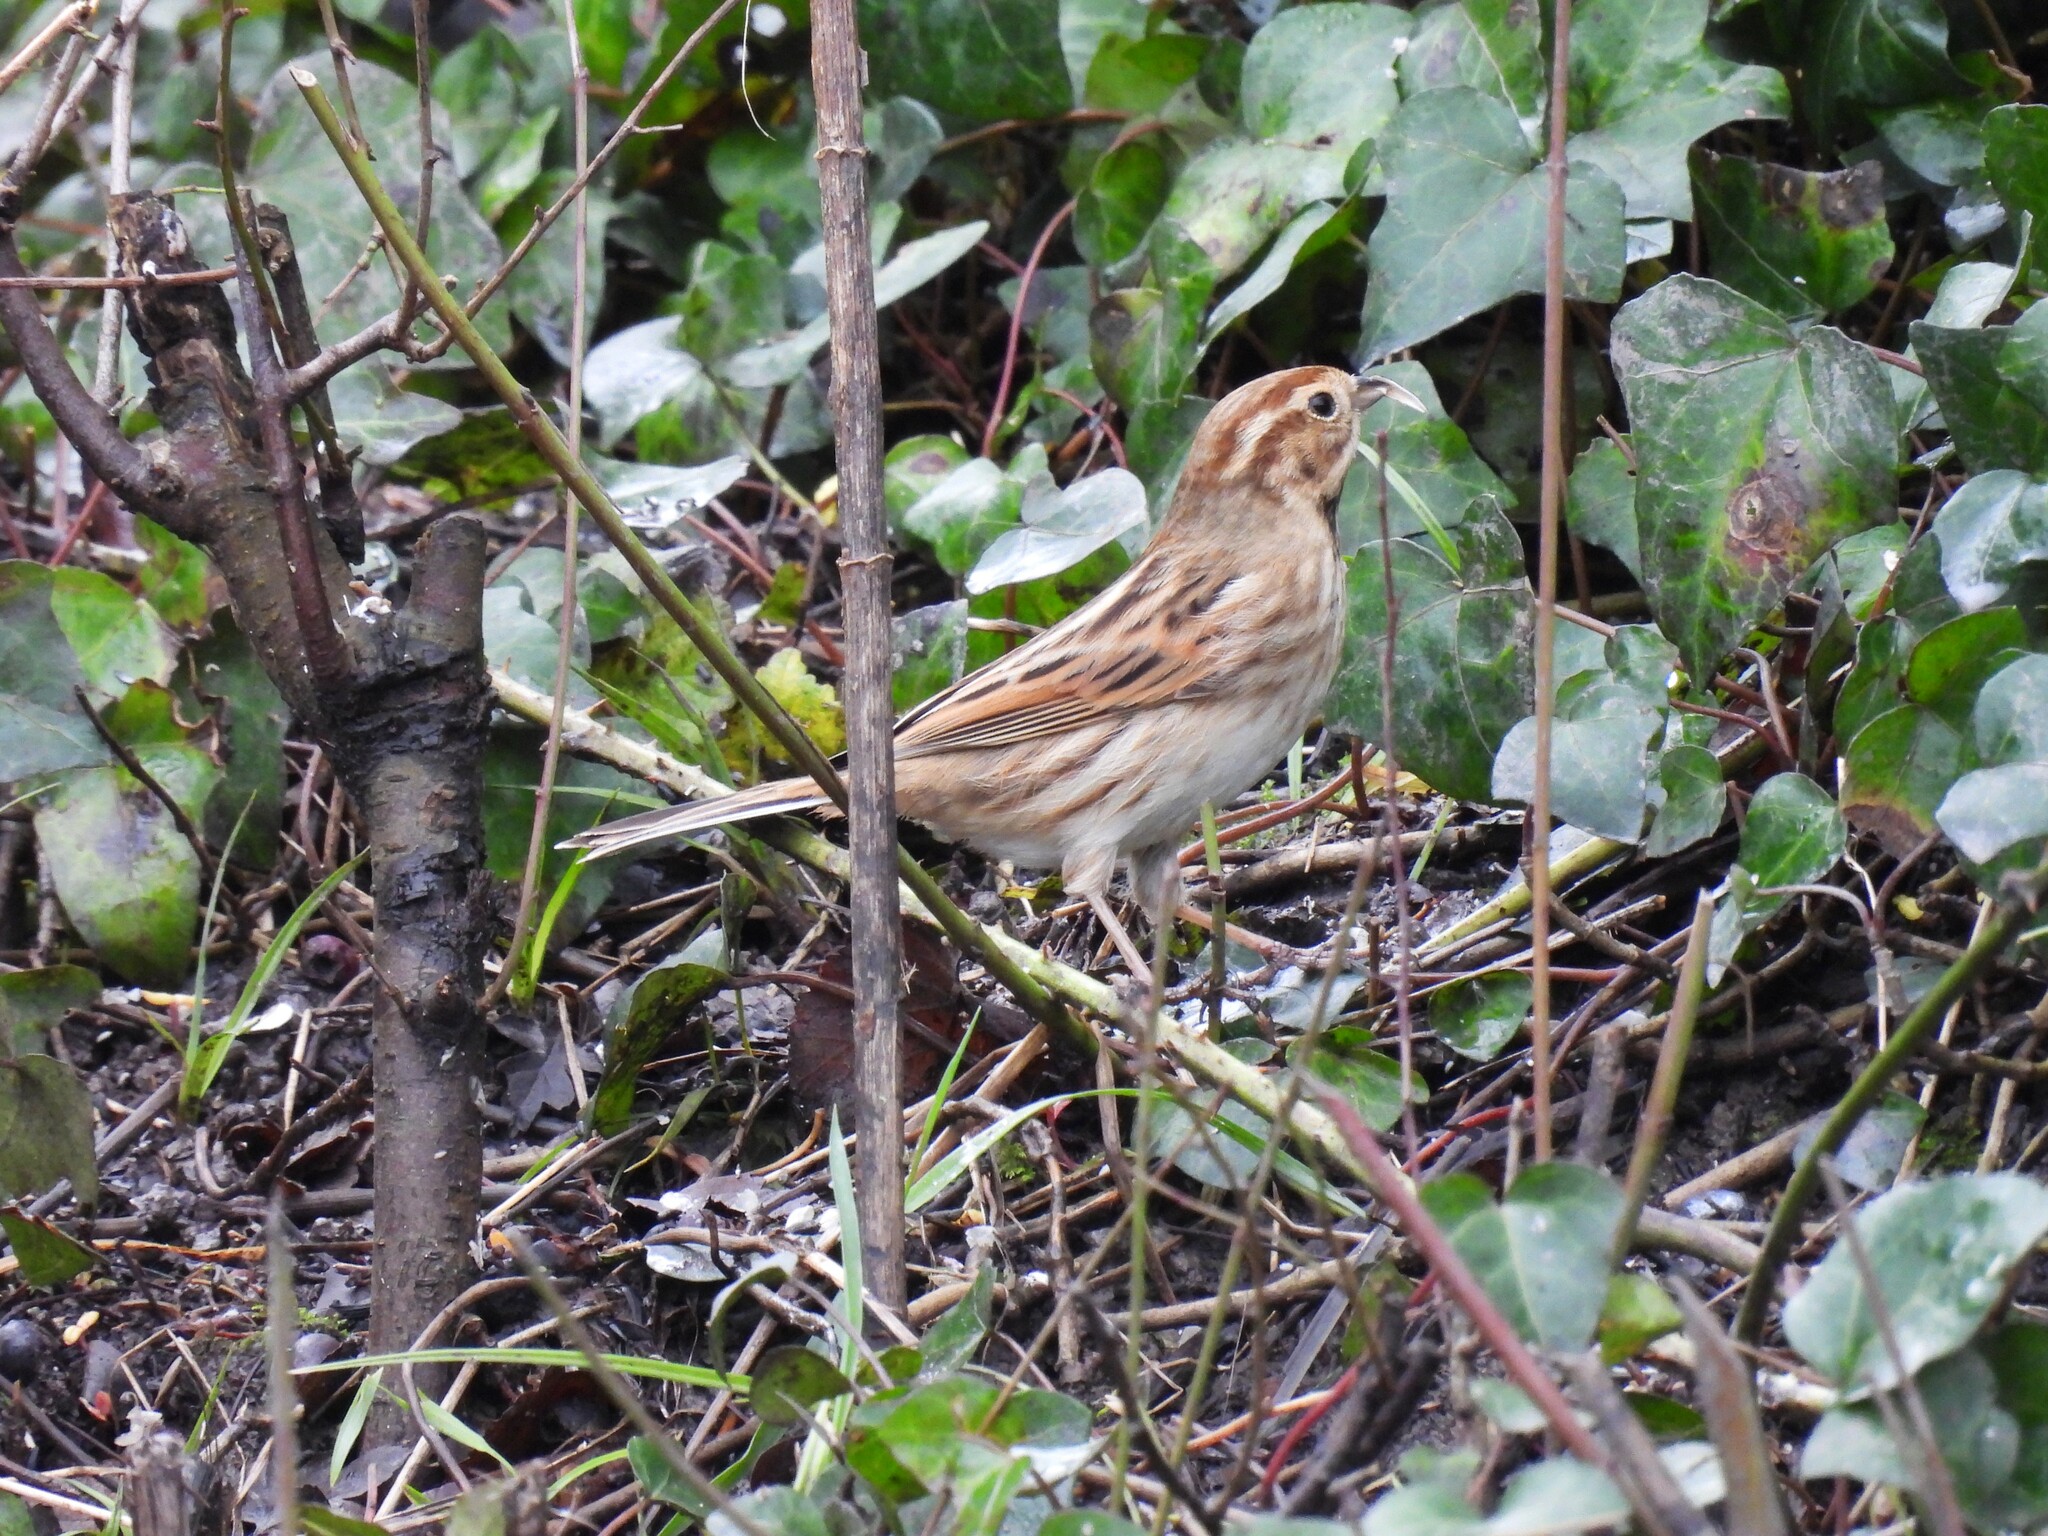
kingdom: Animalia
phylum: Chordata
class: Aves
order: Passeriformes
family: Emberizidae
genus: Emberiza
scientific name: Emberiza schoeniclus
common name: Reed bunting
